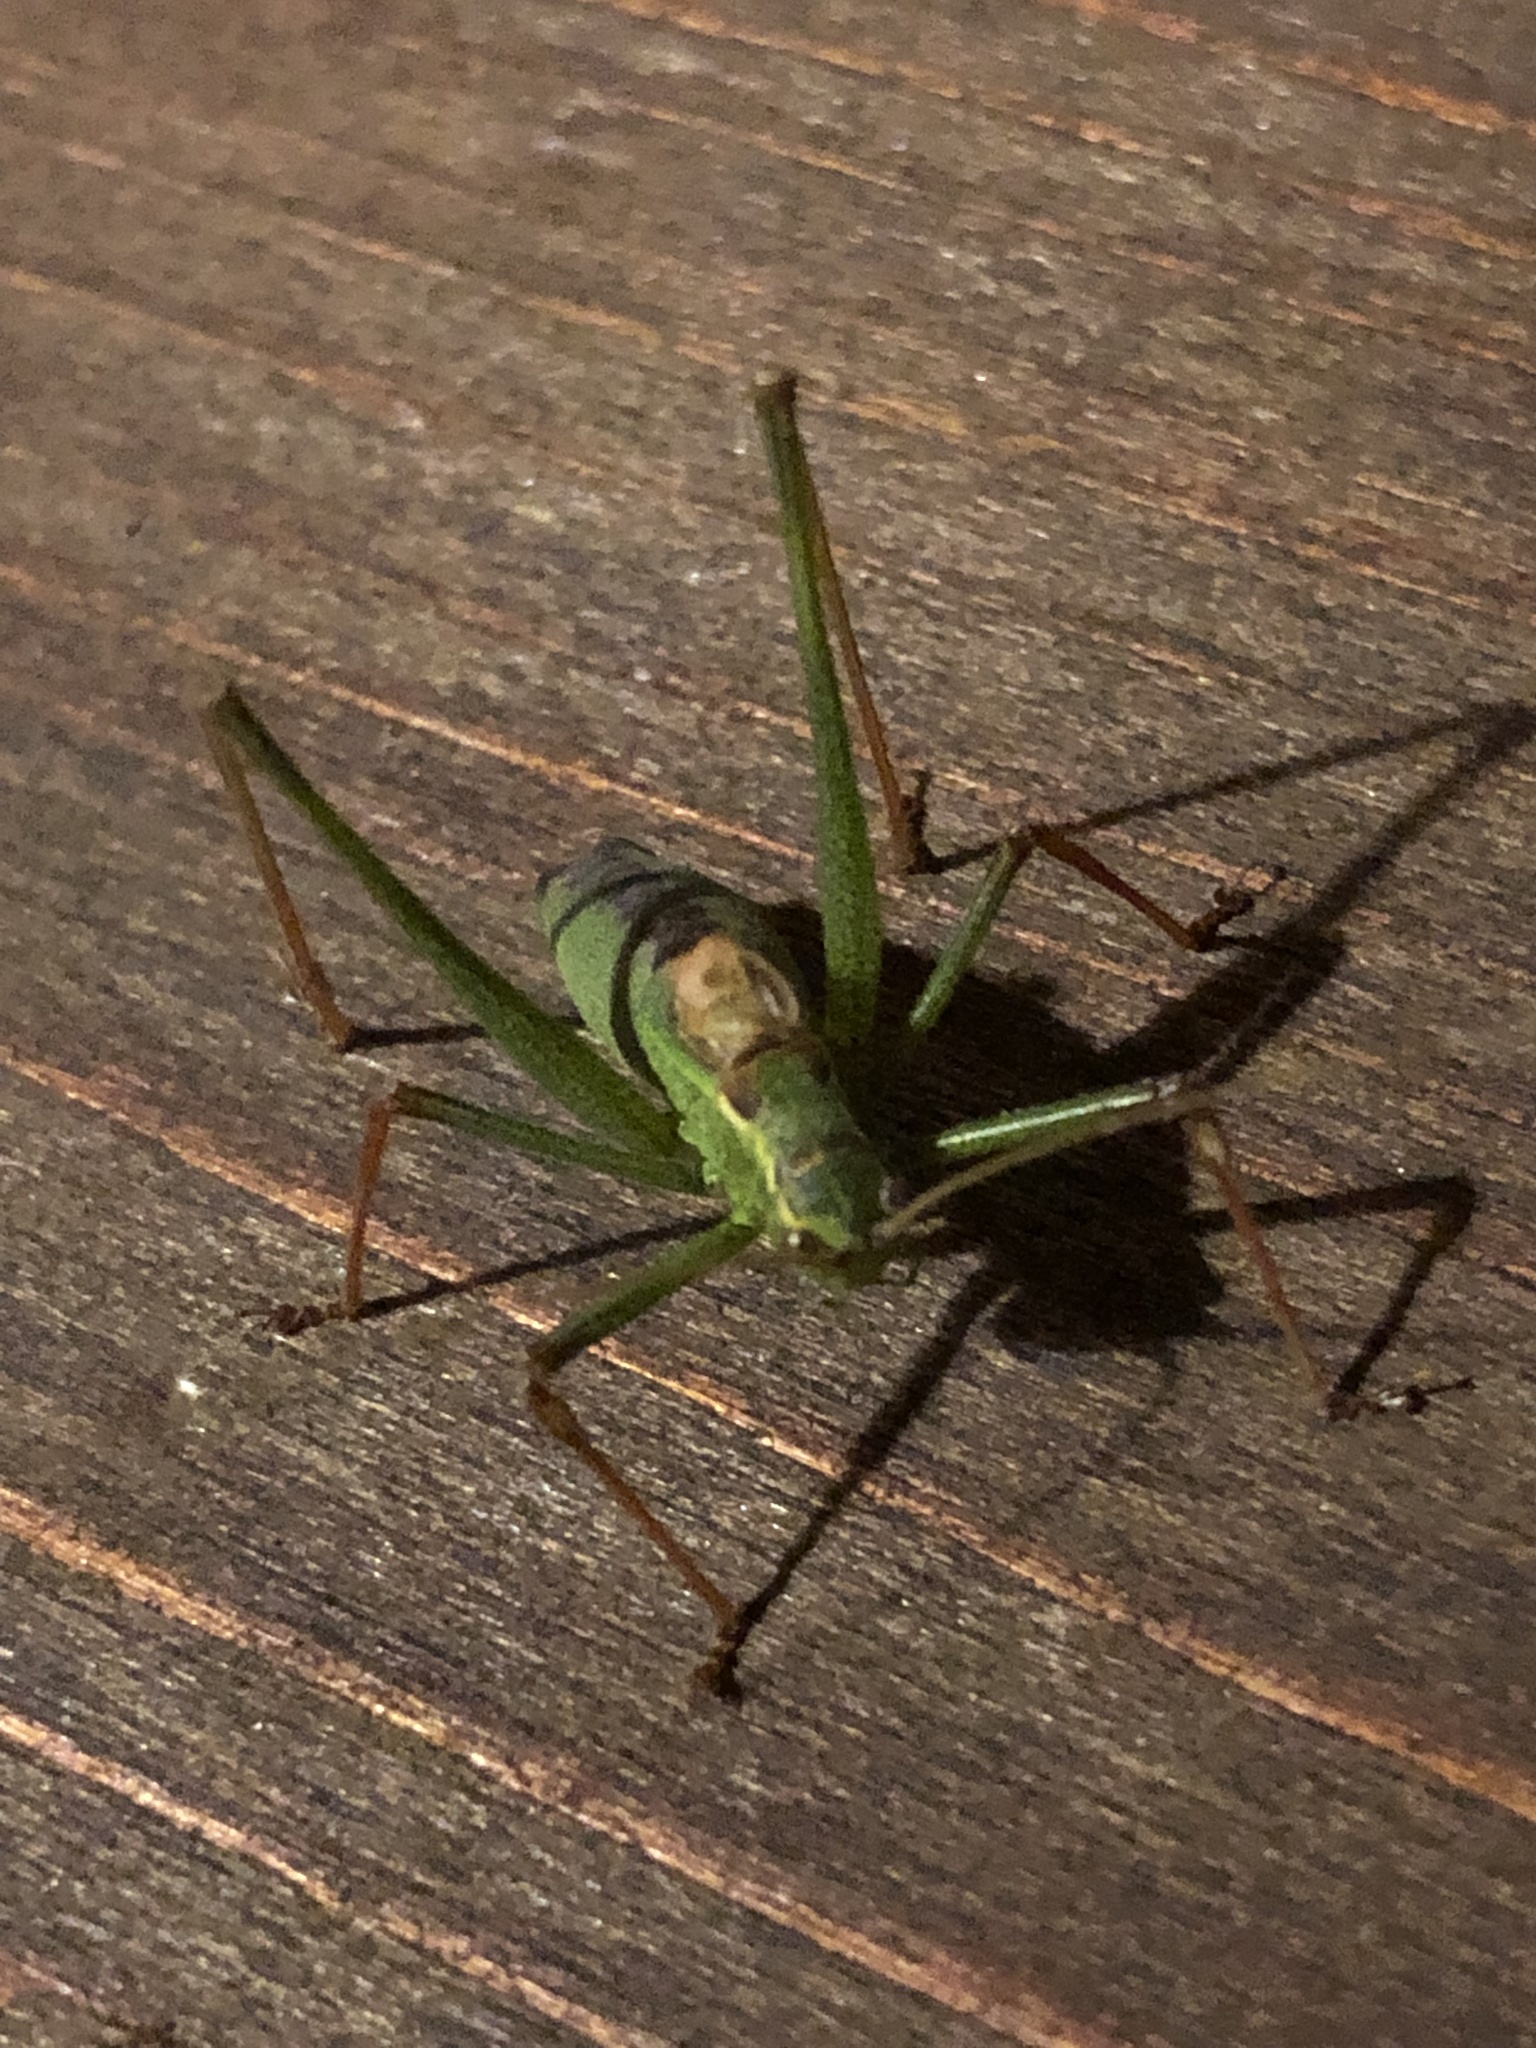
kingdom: Animalia
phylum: Arthropoda
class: Insecta
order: Orthoptera
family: Tettigoniidae
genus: Leptophyes
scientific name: Leptophyes punctatissima
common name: Speckled bush-cricket
